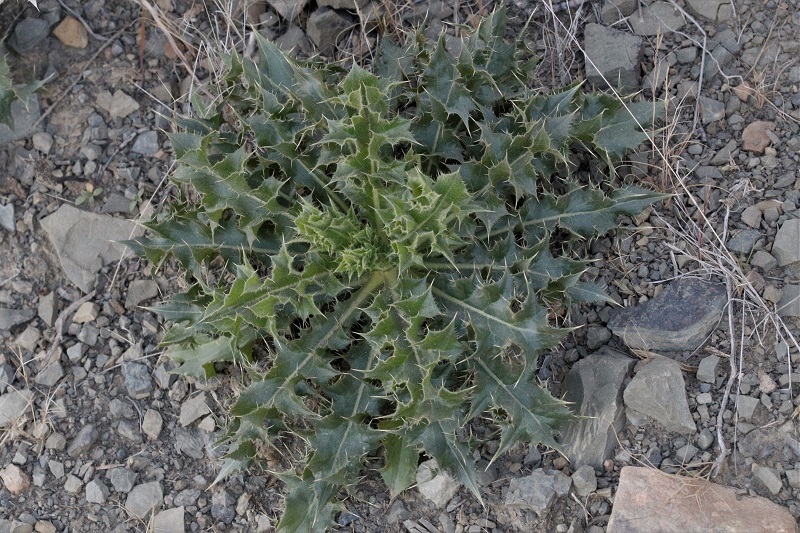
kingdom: Plantae
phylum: Tracheophyta
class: Magnoliopsida
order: Asterales
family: Asteraceae
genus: Berkheya
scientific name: Berkheya carlinifolia
